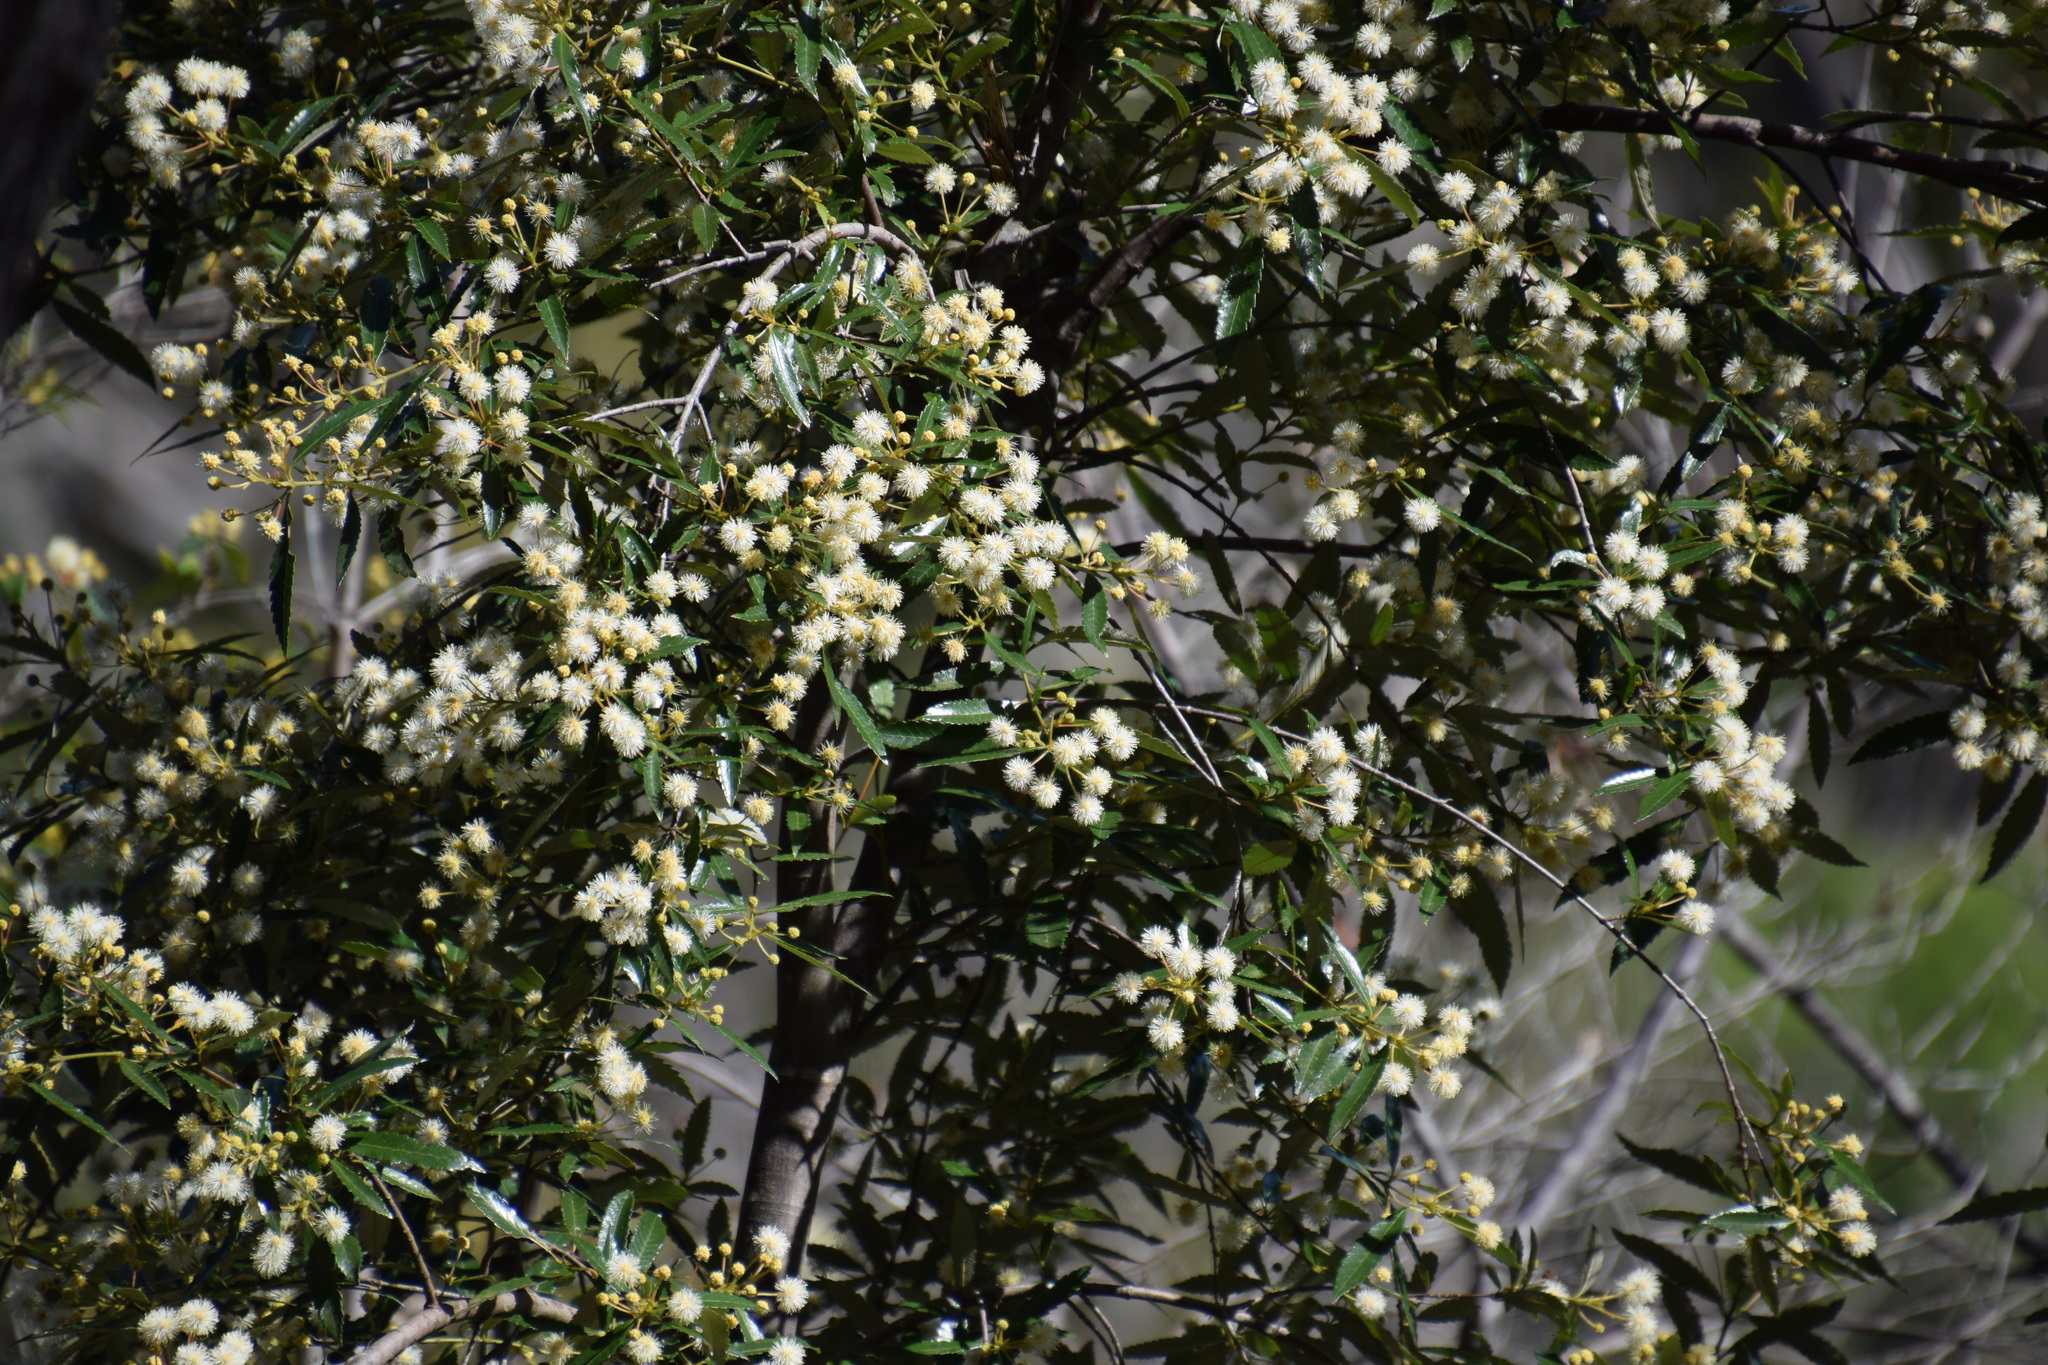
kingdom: Plantae
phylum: Tracheophyta
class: Magnoliopsida
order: Oxalidales
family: Cunoniaceae
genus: Callicoma
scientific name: Callicoma serratifolia
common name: Black wattle
